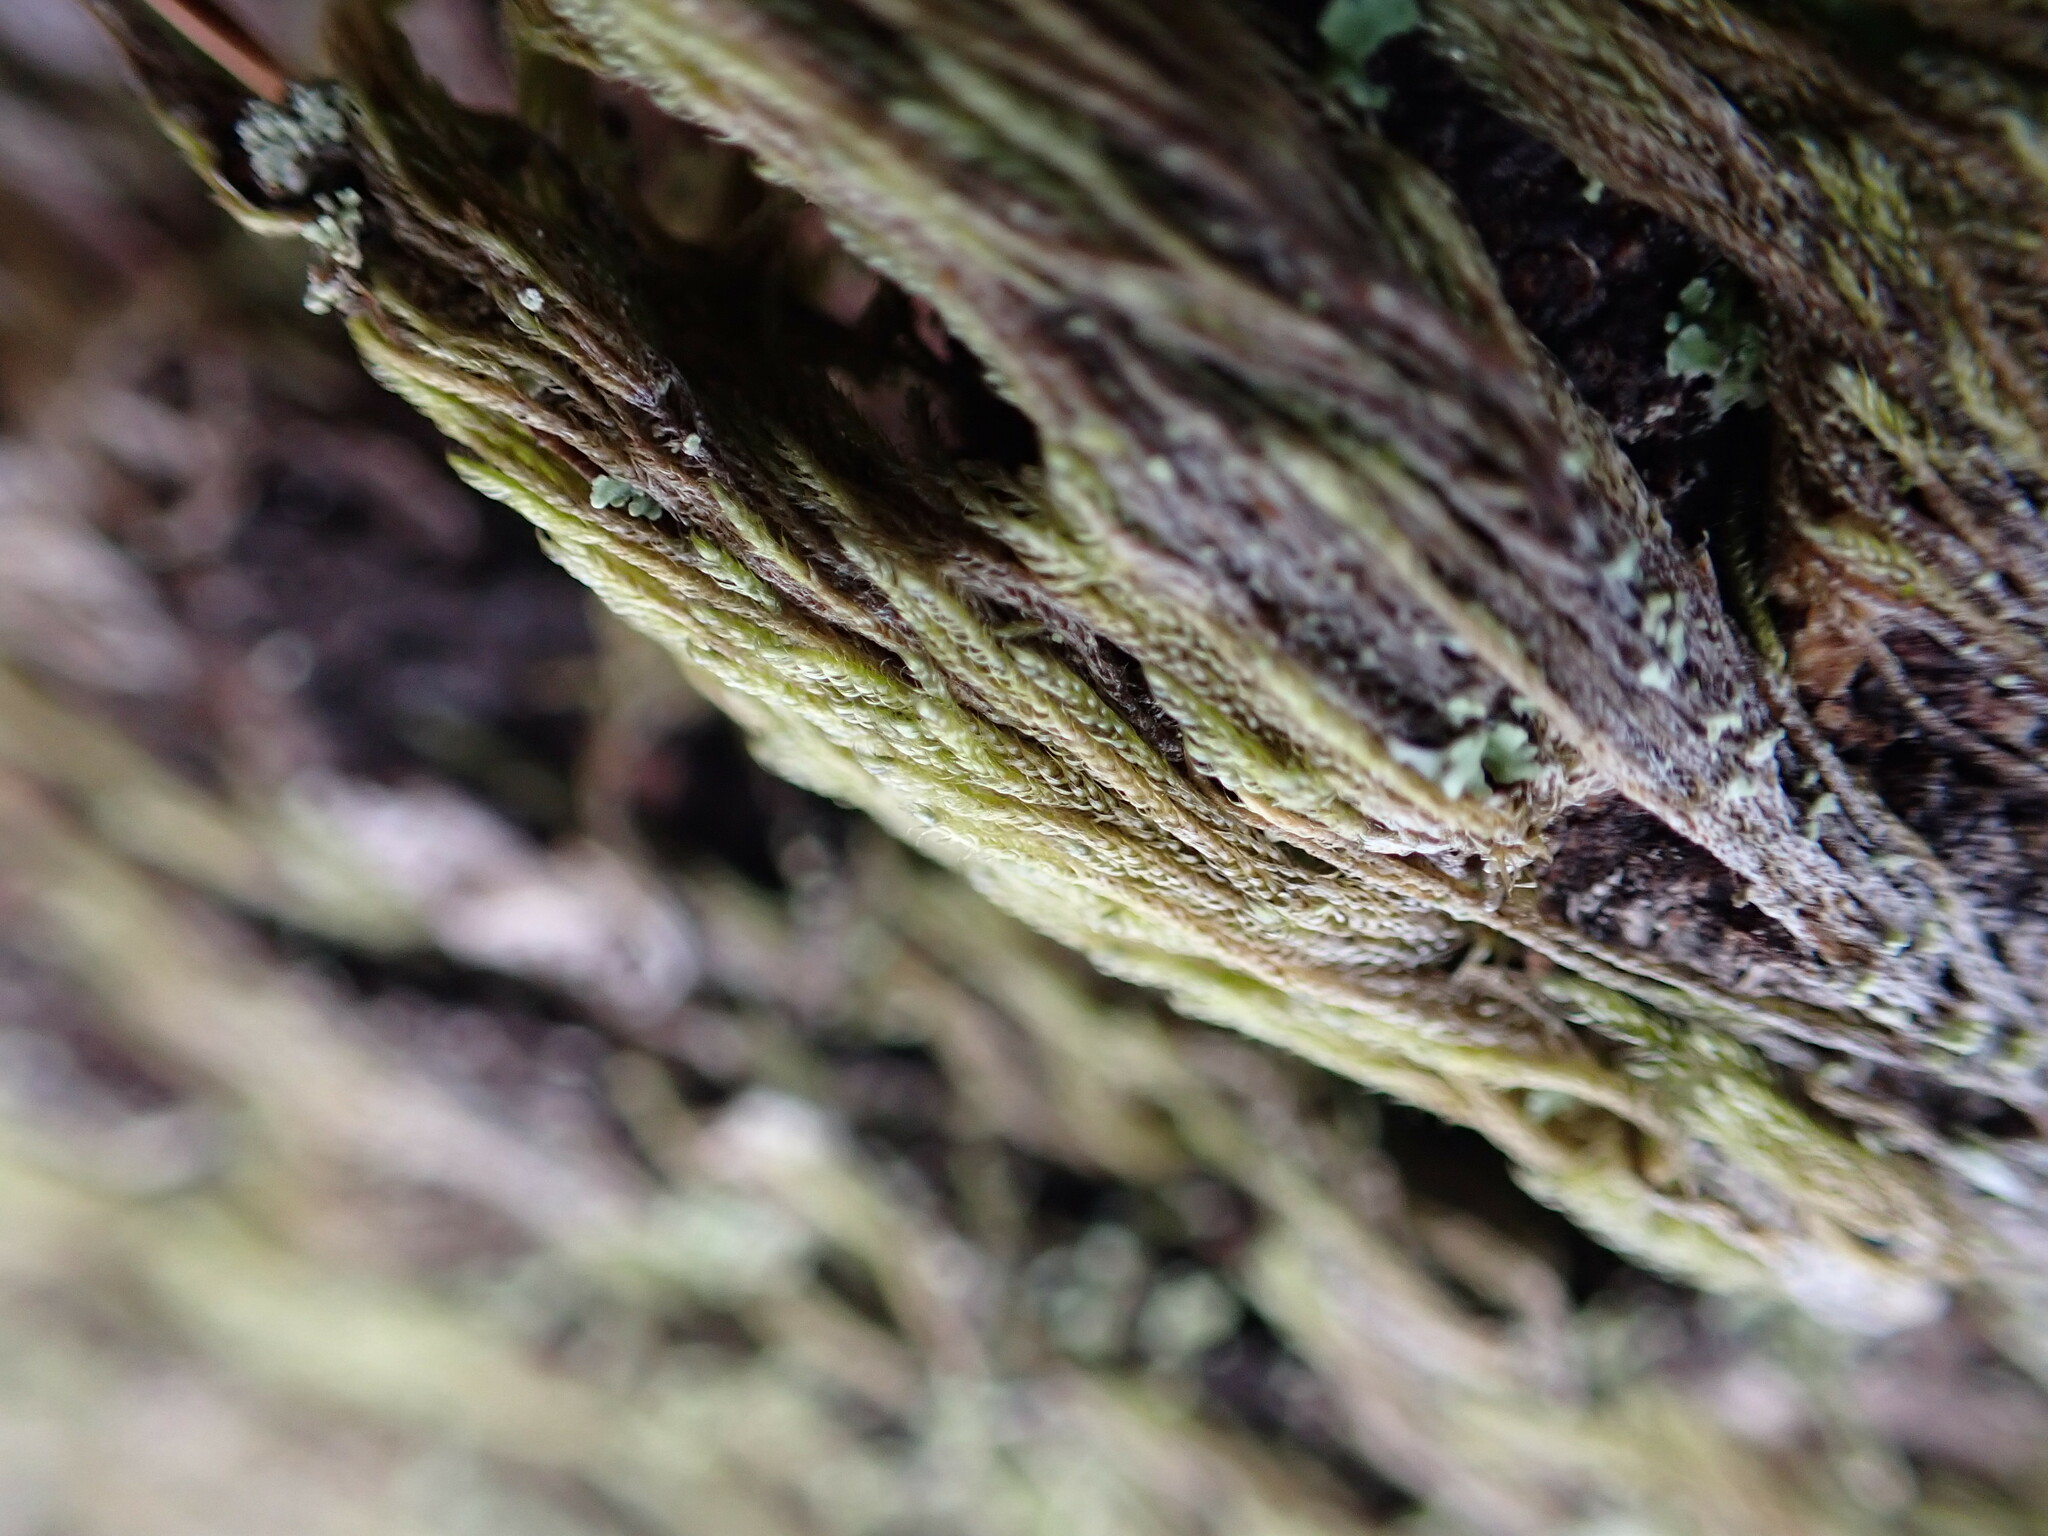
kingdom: Plantae
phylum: Bryophyta
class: Bryopsida
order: Hypnales
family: Pylaisiadelphaceae
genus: Trochophyllohypnum
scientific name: Trochophyllohypnum circinale
